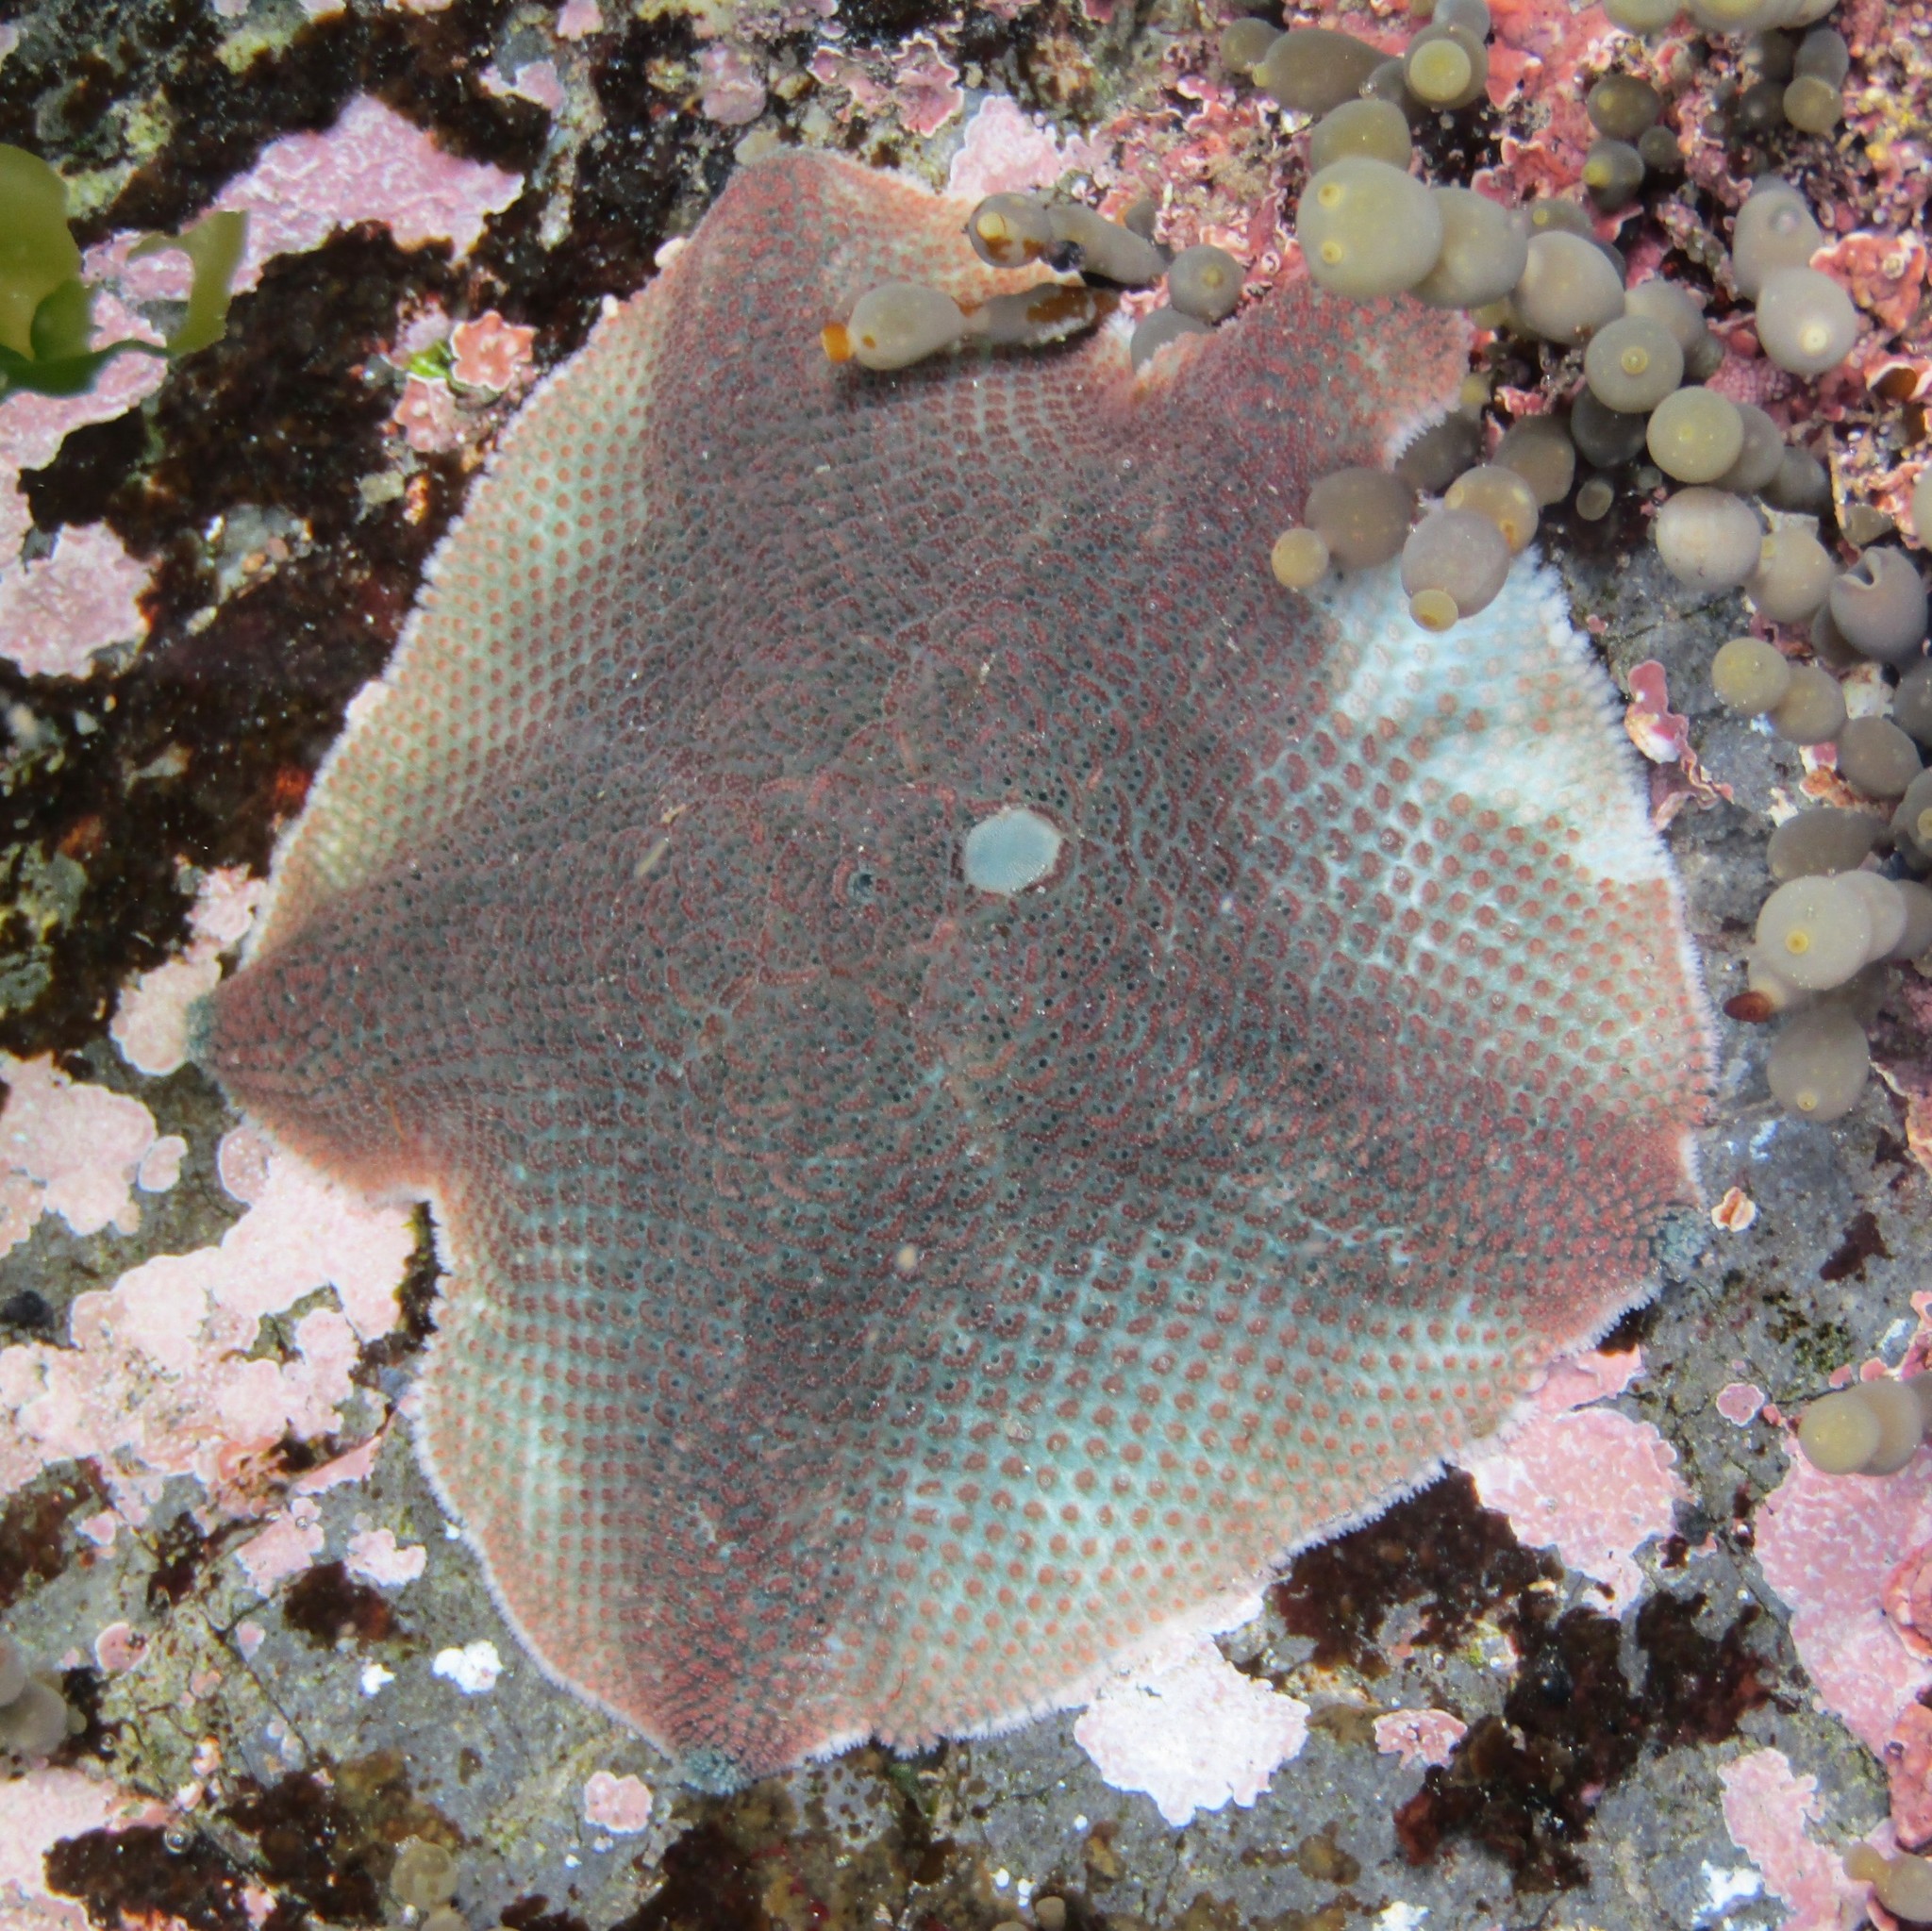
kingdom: Animalia
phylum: Echinodermata
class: Asteroidea
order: Valvatida
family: Asterinidae
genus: Patiriella
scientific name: Patiriella regularis
